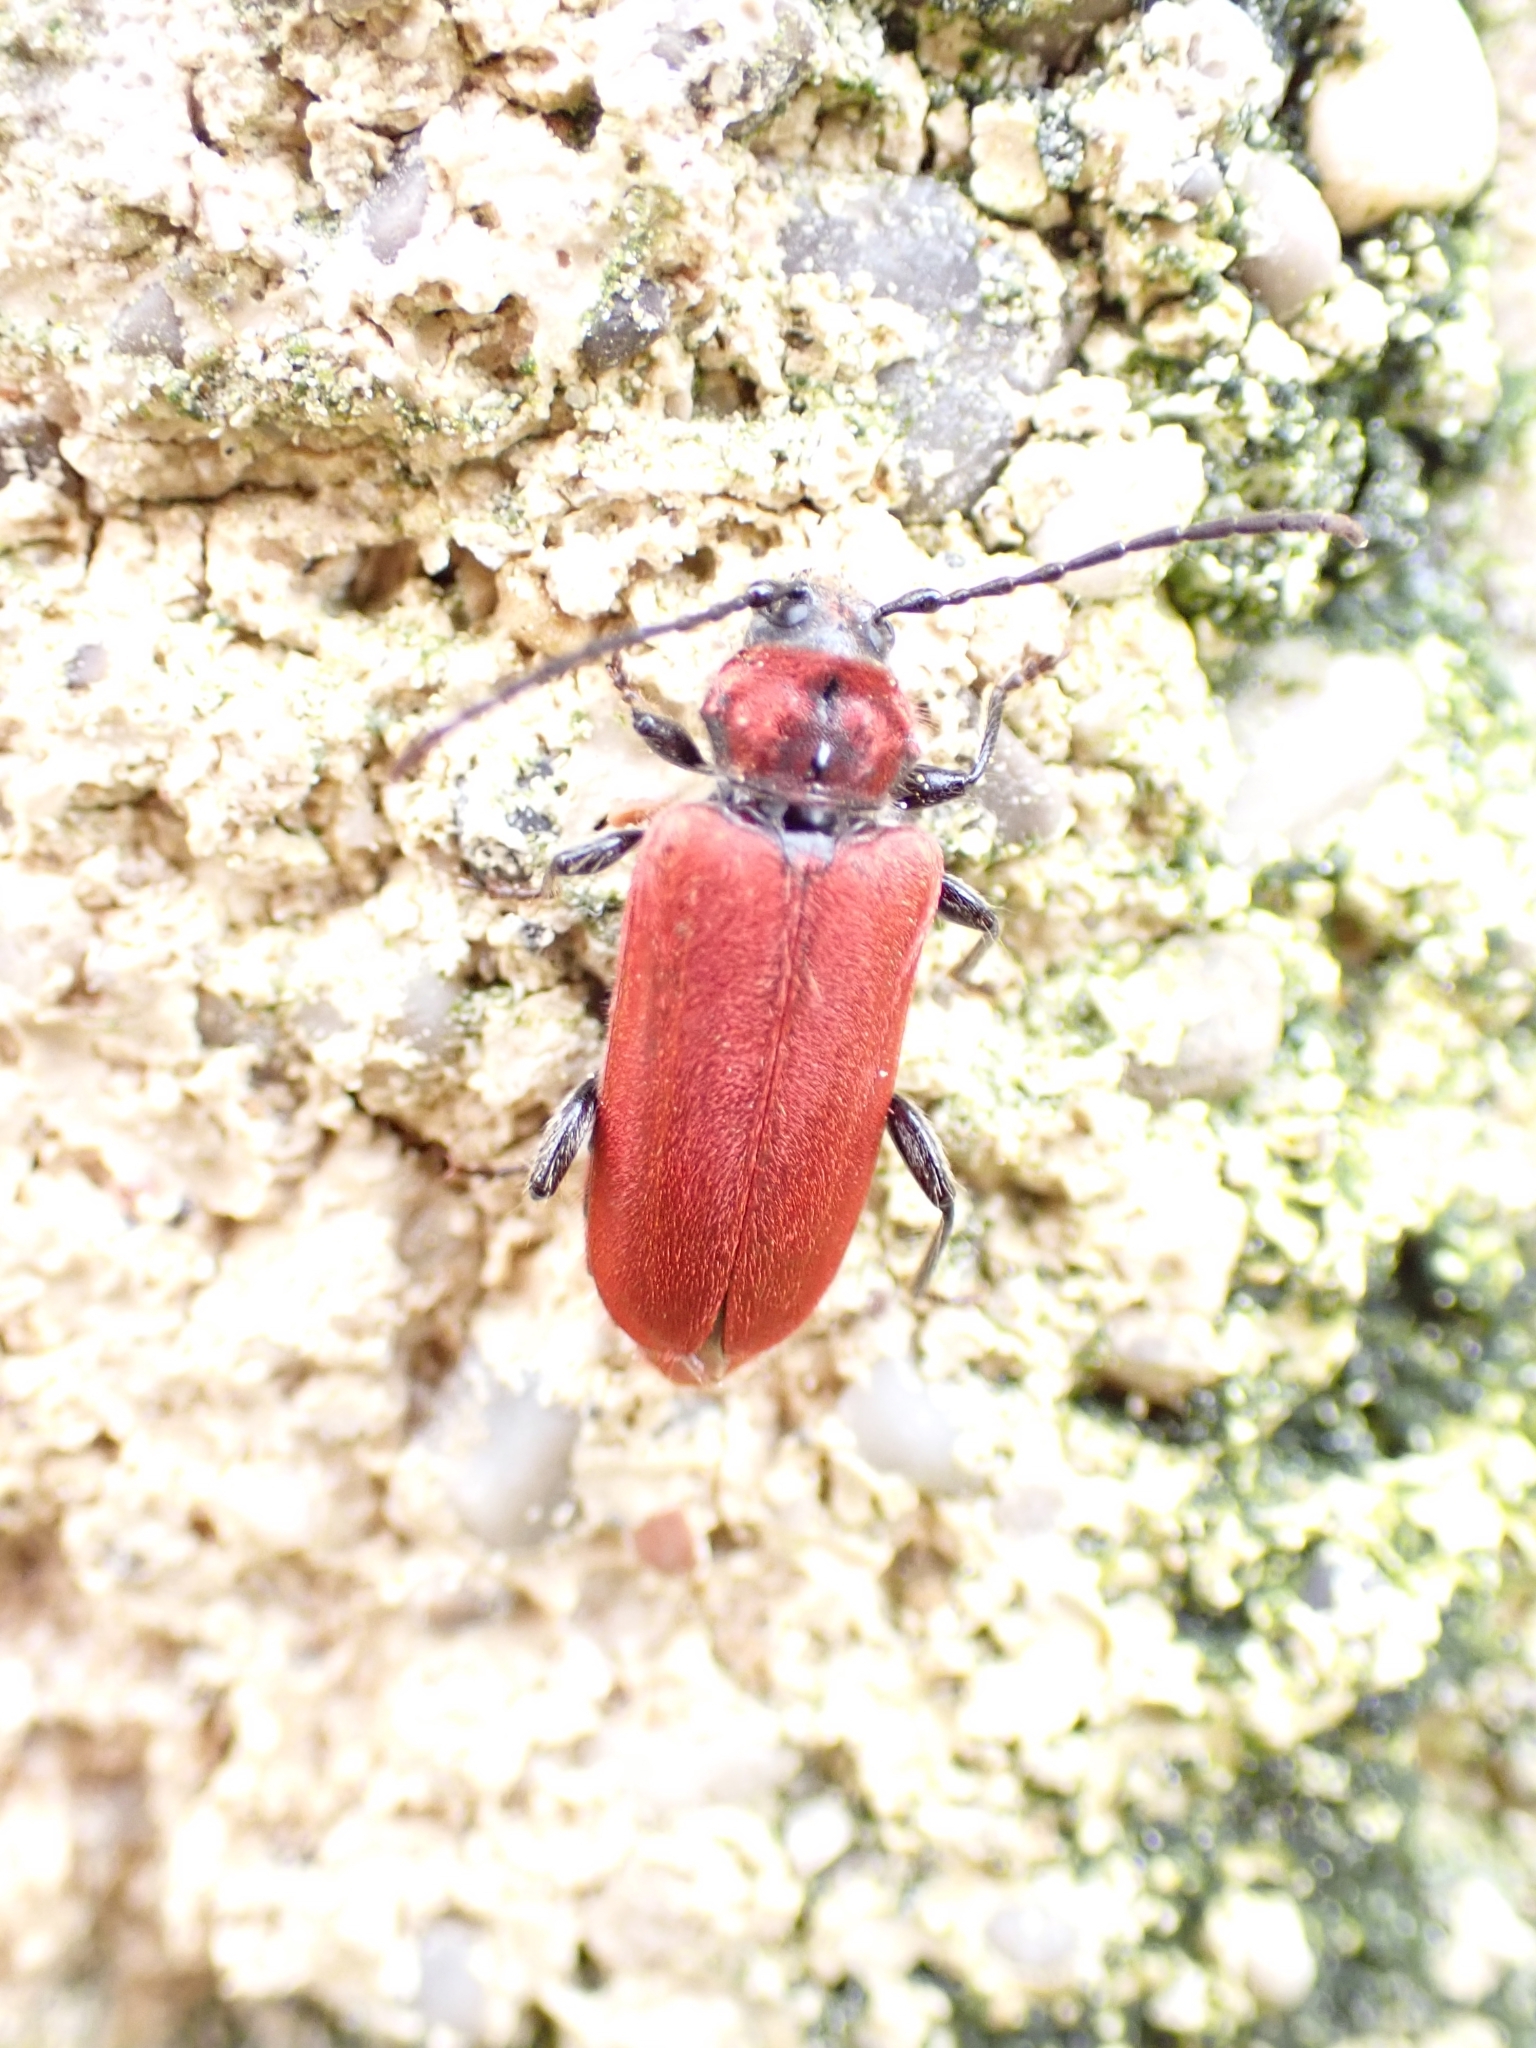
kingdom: Animalia
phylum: Arthropoda
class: Insecta
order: Coleoptera
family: Cerambycidae
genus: Pyrrhidium
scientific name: Pyrrhidium sanguineum
